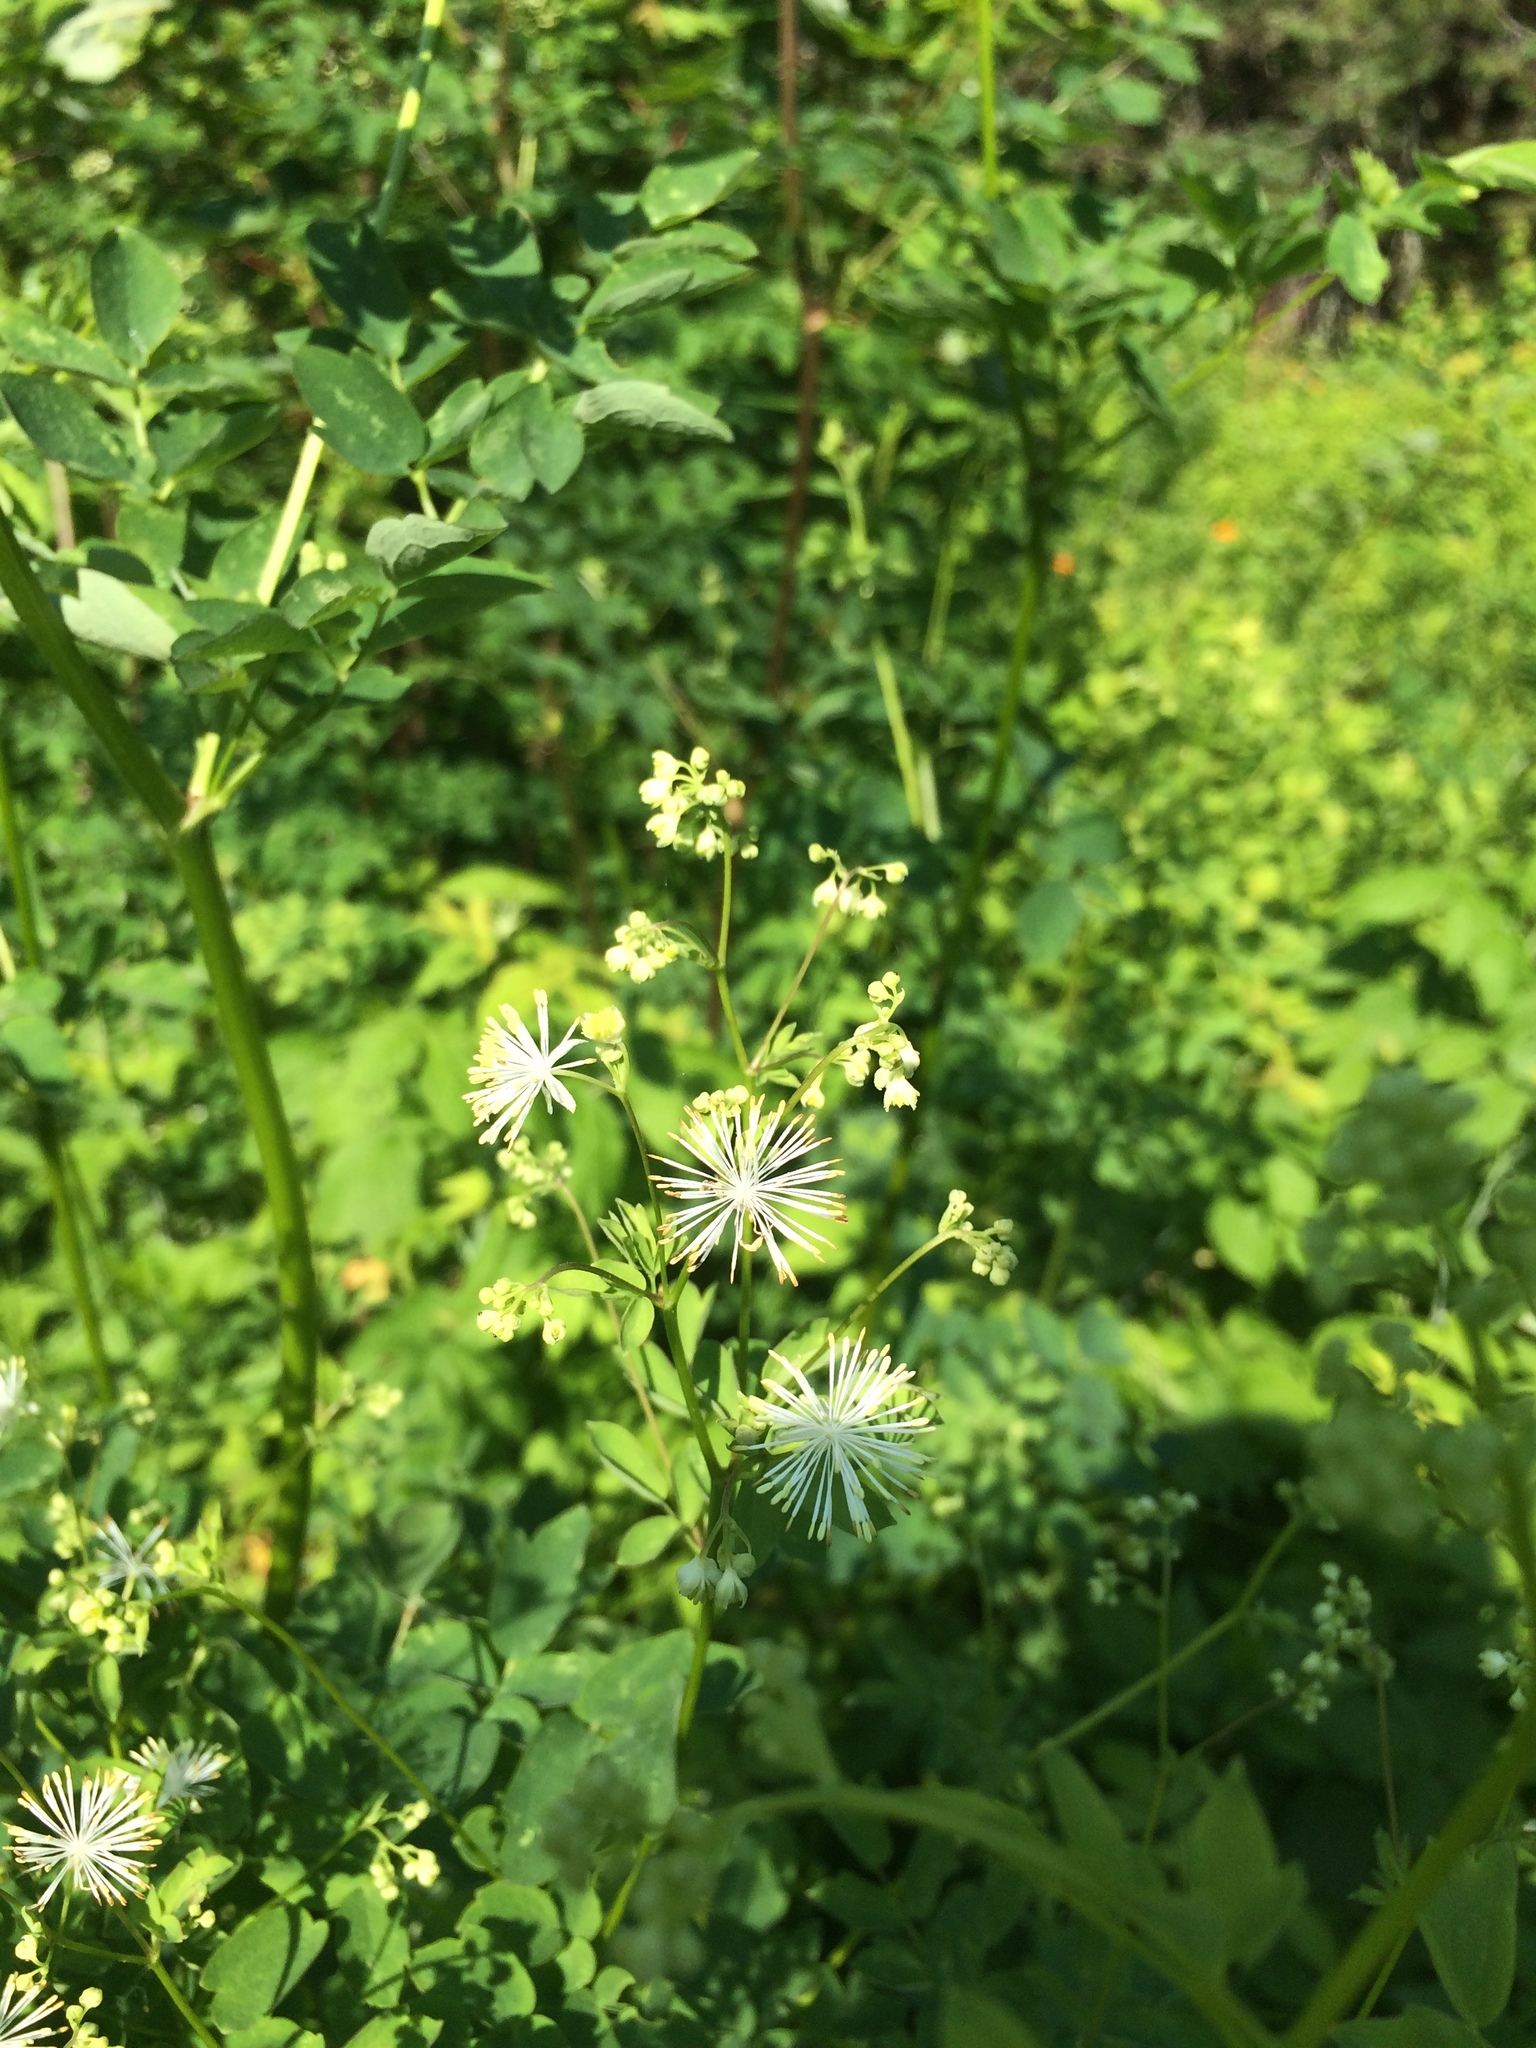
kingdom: Plantae
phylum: Tracheophyta
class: Magnoliopsida
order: Ranunculales
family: Ranunculaceae
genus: Thalictrum
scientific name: Thalictrum pubescens
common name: King-of-the-meadow
